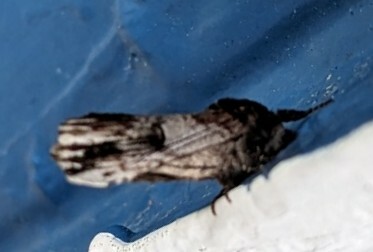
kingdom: Animalia
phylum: Arthropoda
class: Insecta
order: Lepidoptera
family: Notodontidae
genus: Schizura
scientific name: Schizura badia
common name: Chestnut schizura
